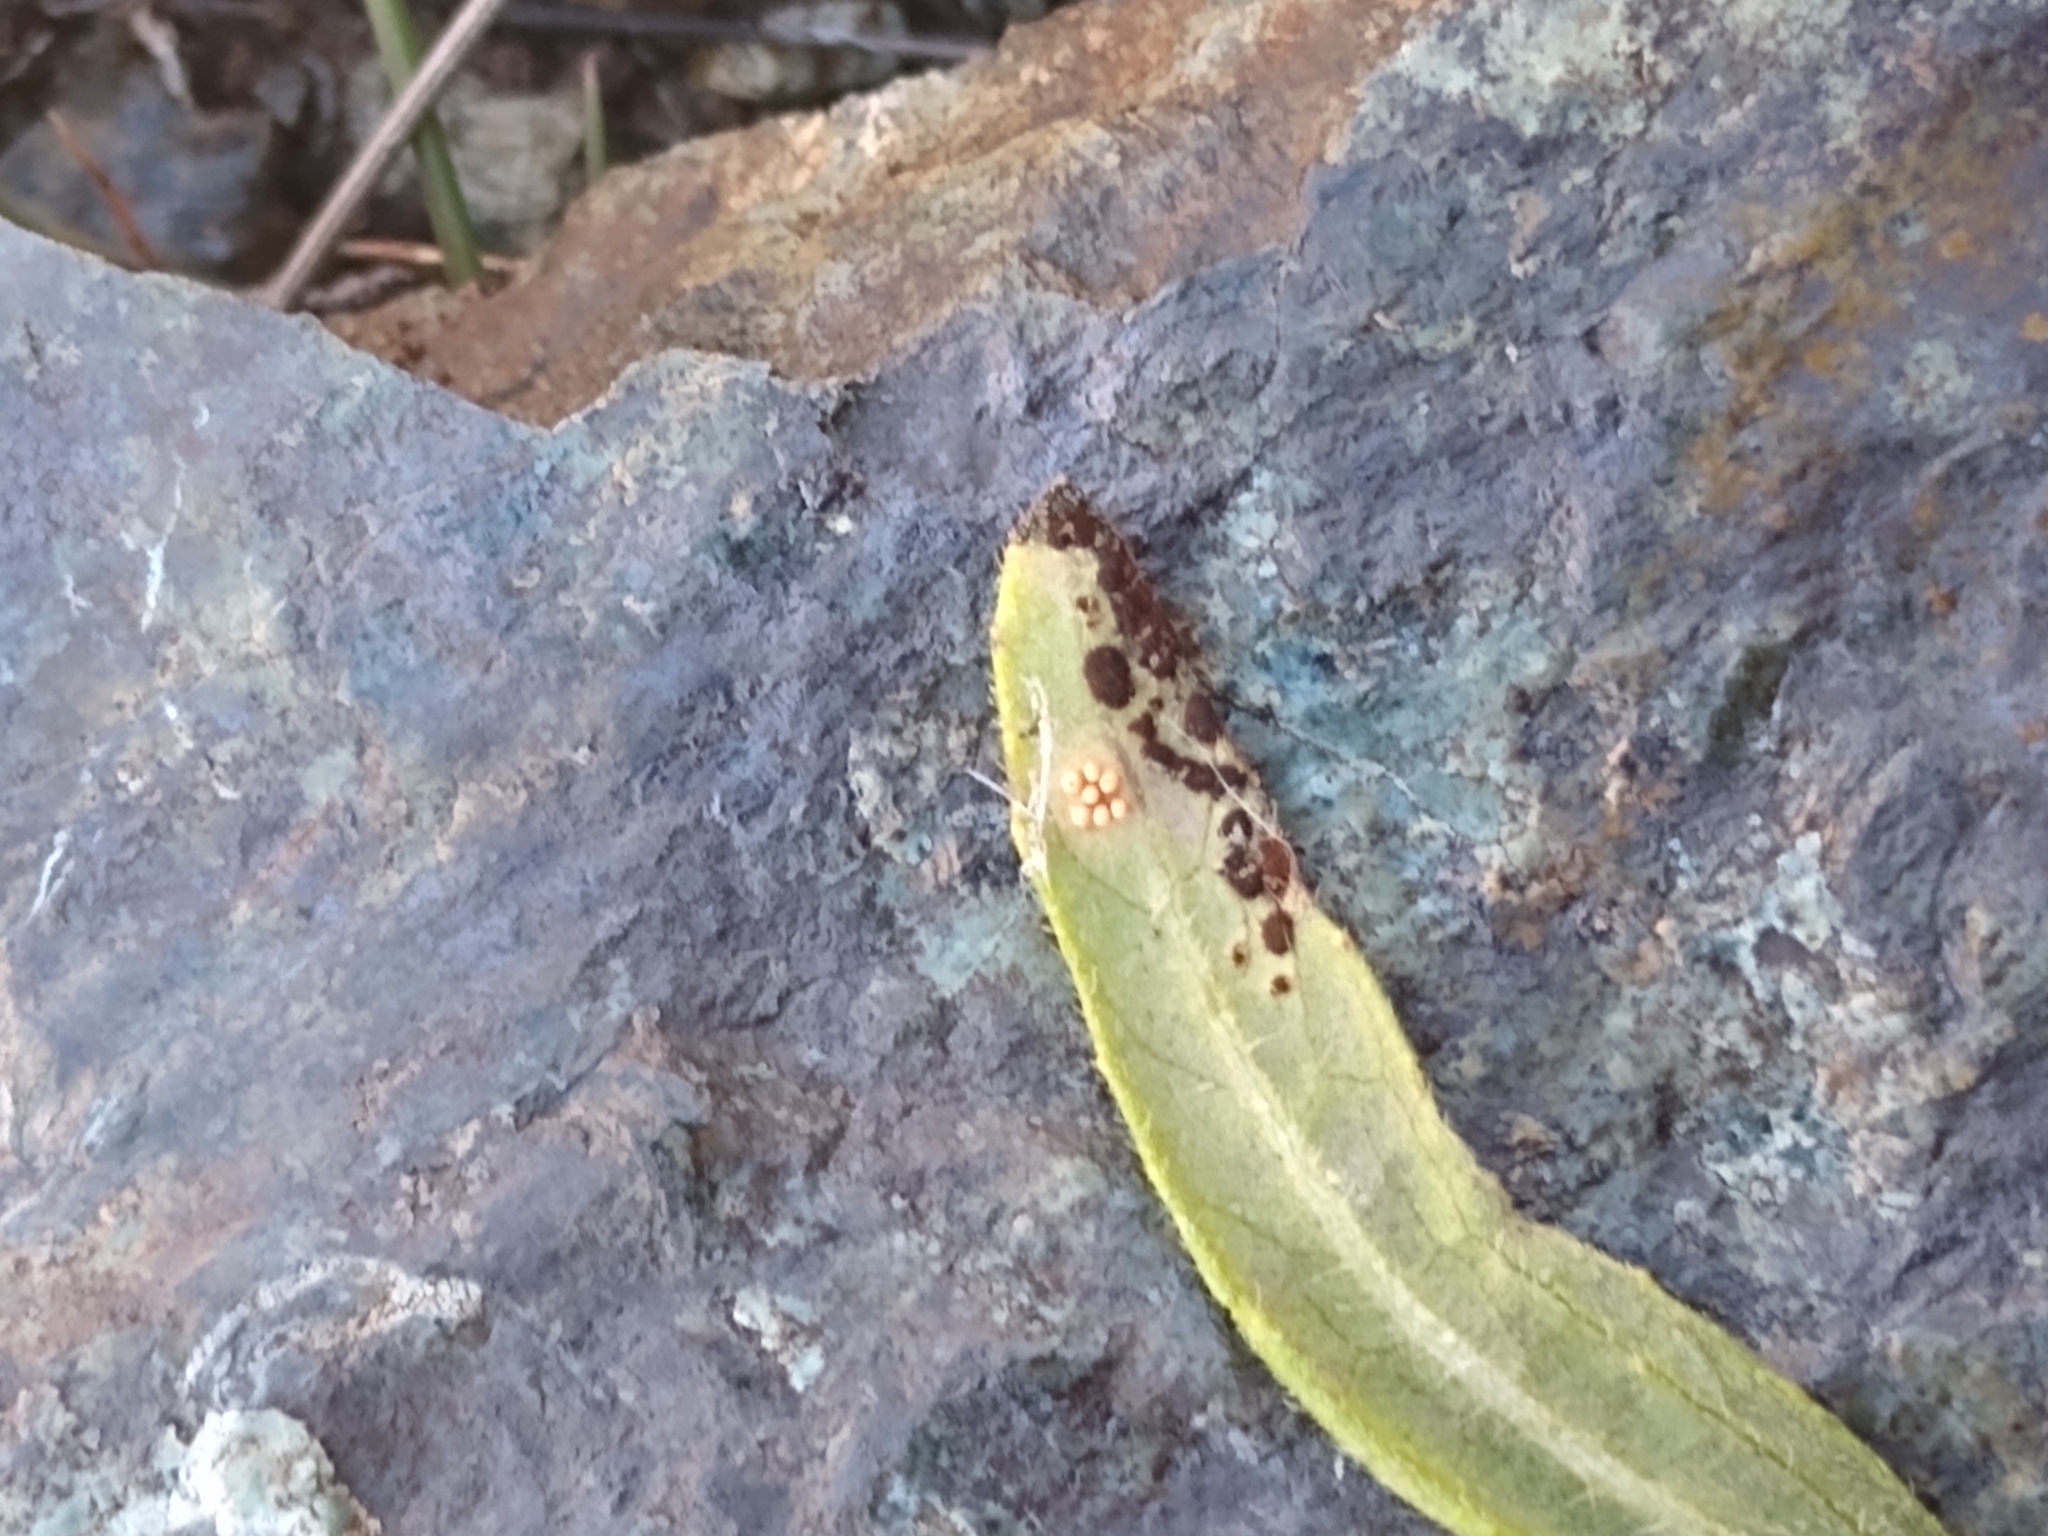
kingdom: Fungi
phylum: Basidiomycota
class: Pucciniomycetes
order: Pucciniales
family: Pucciniaceae
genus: Puccinia
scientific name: Puccinia helianthi-mollis
